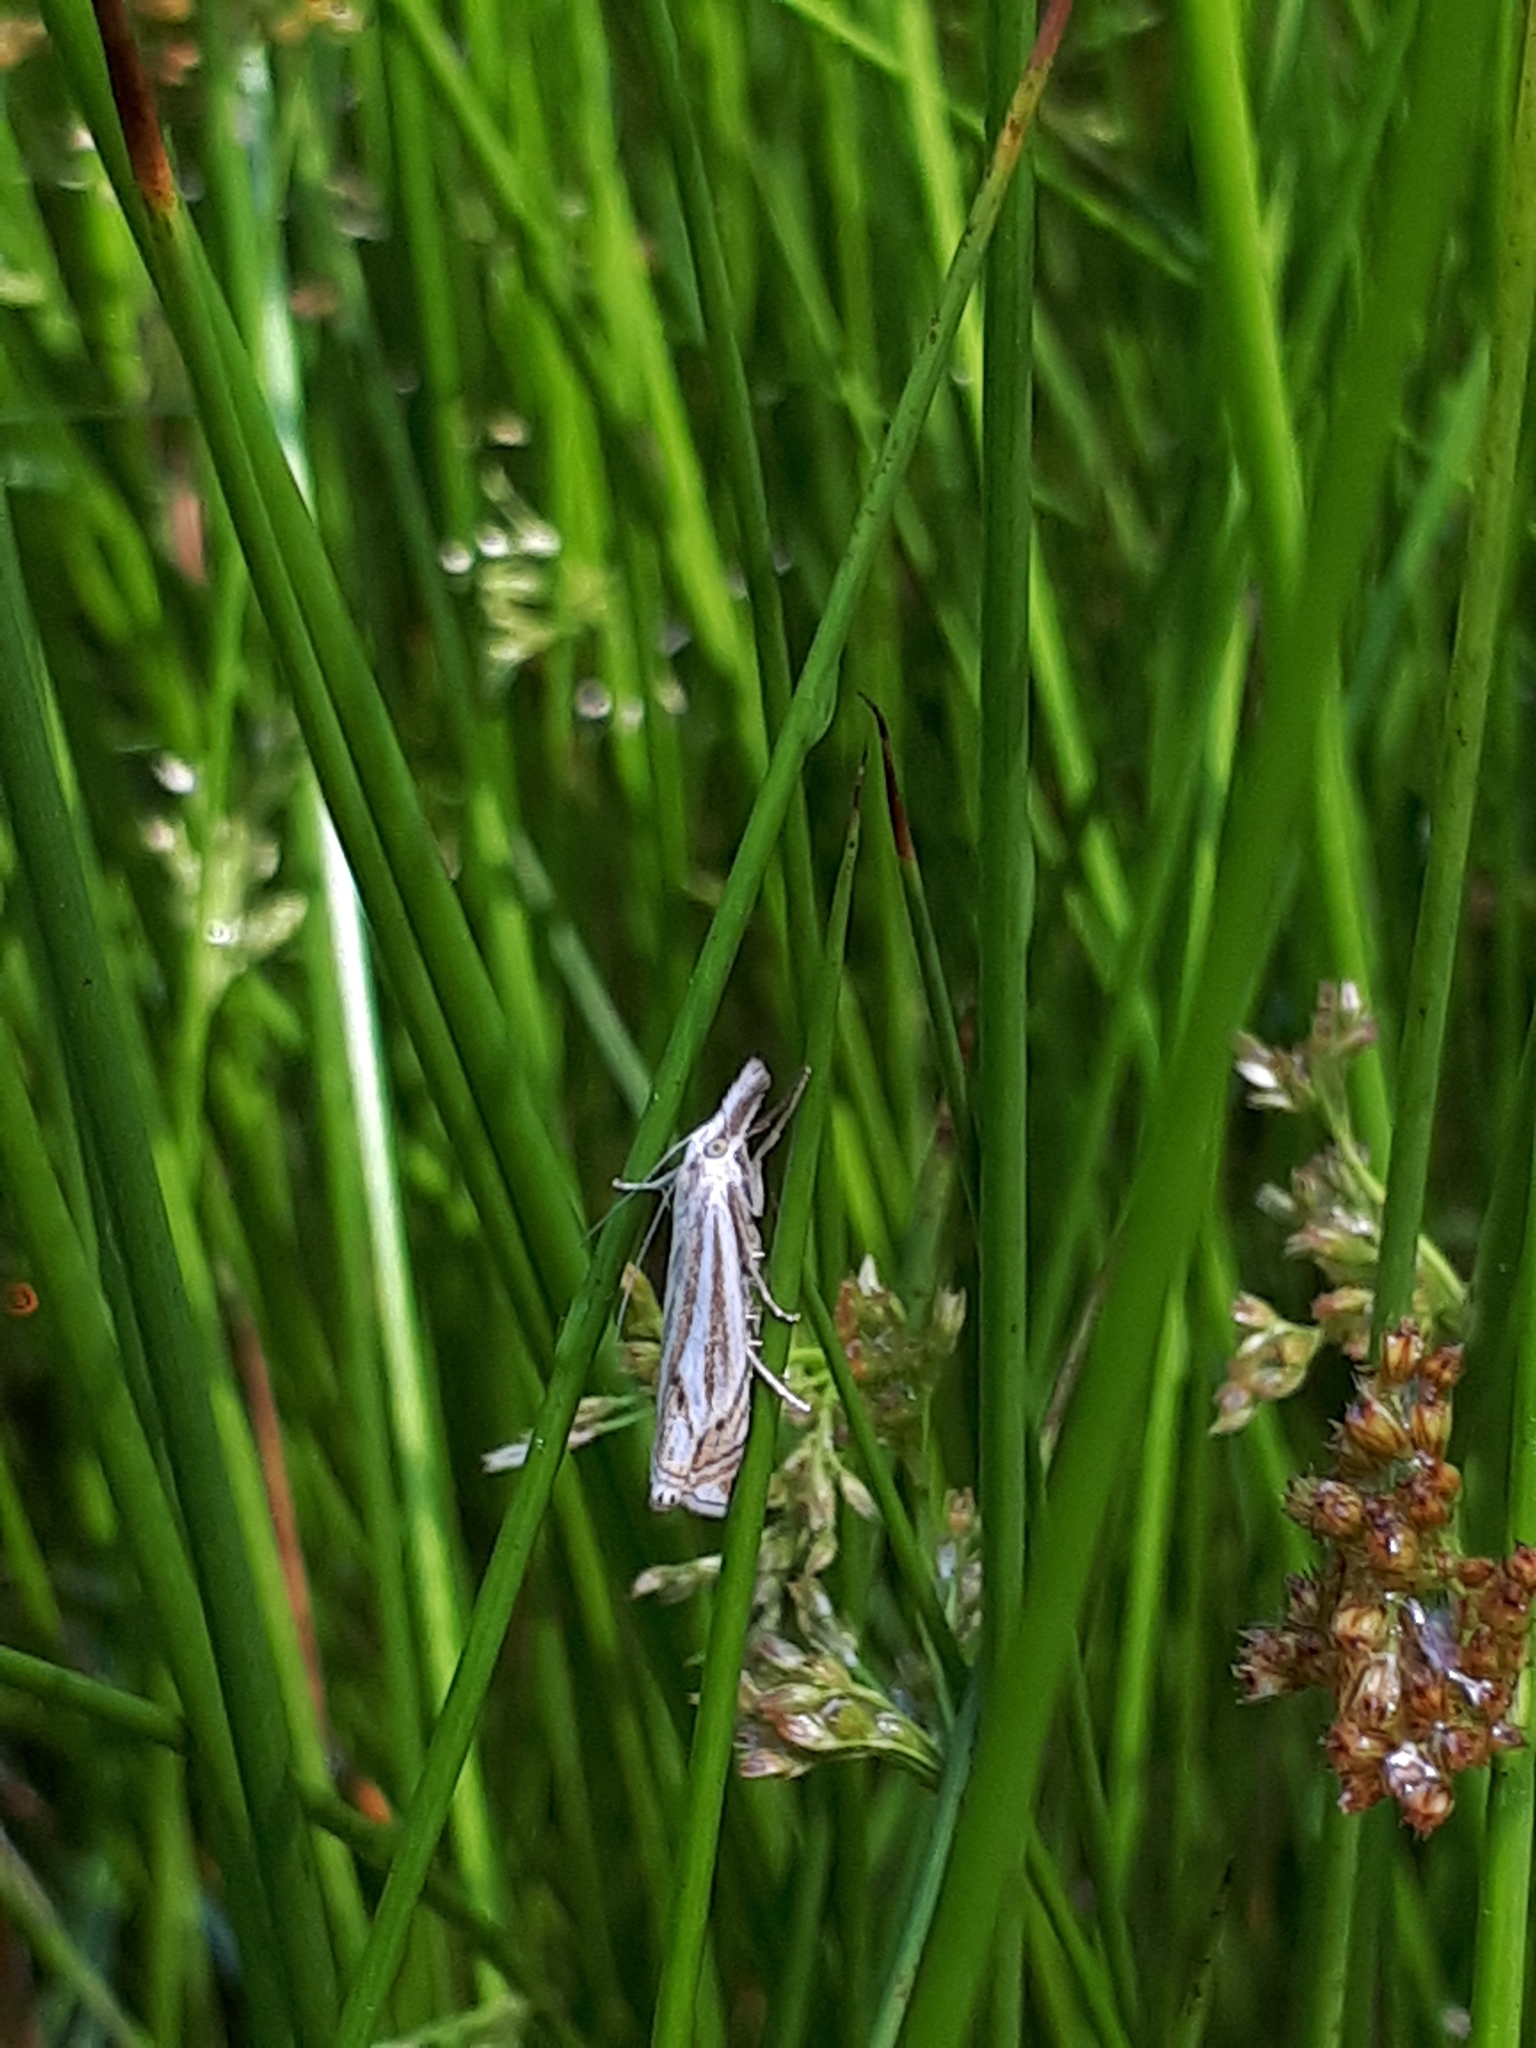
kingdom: Animalia
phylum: Arthropoda
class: Insecta
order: Lepidoptera
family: Crambidae
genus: Crambus
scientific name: Crambus nemorella
